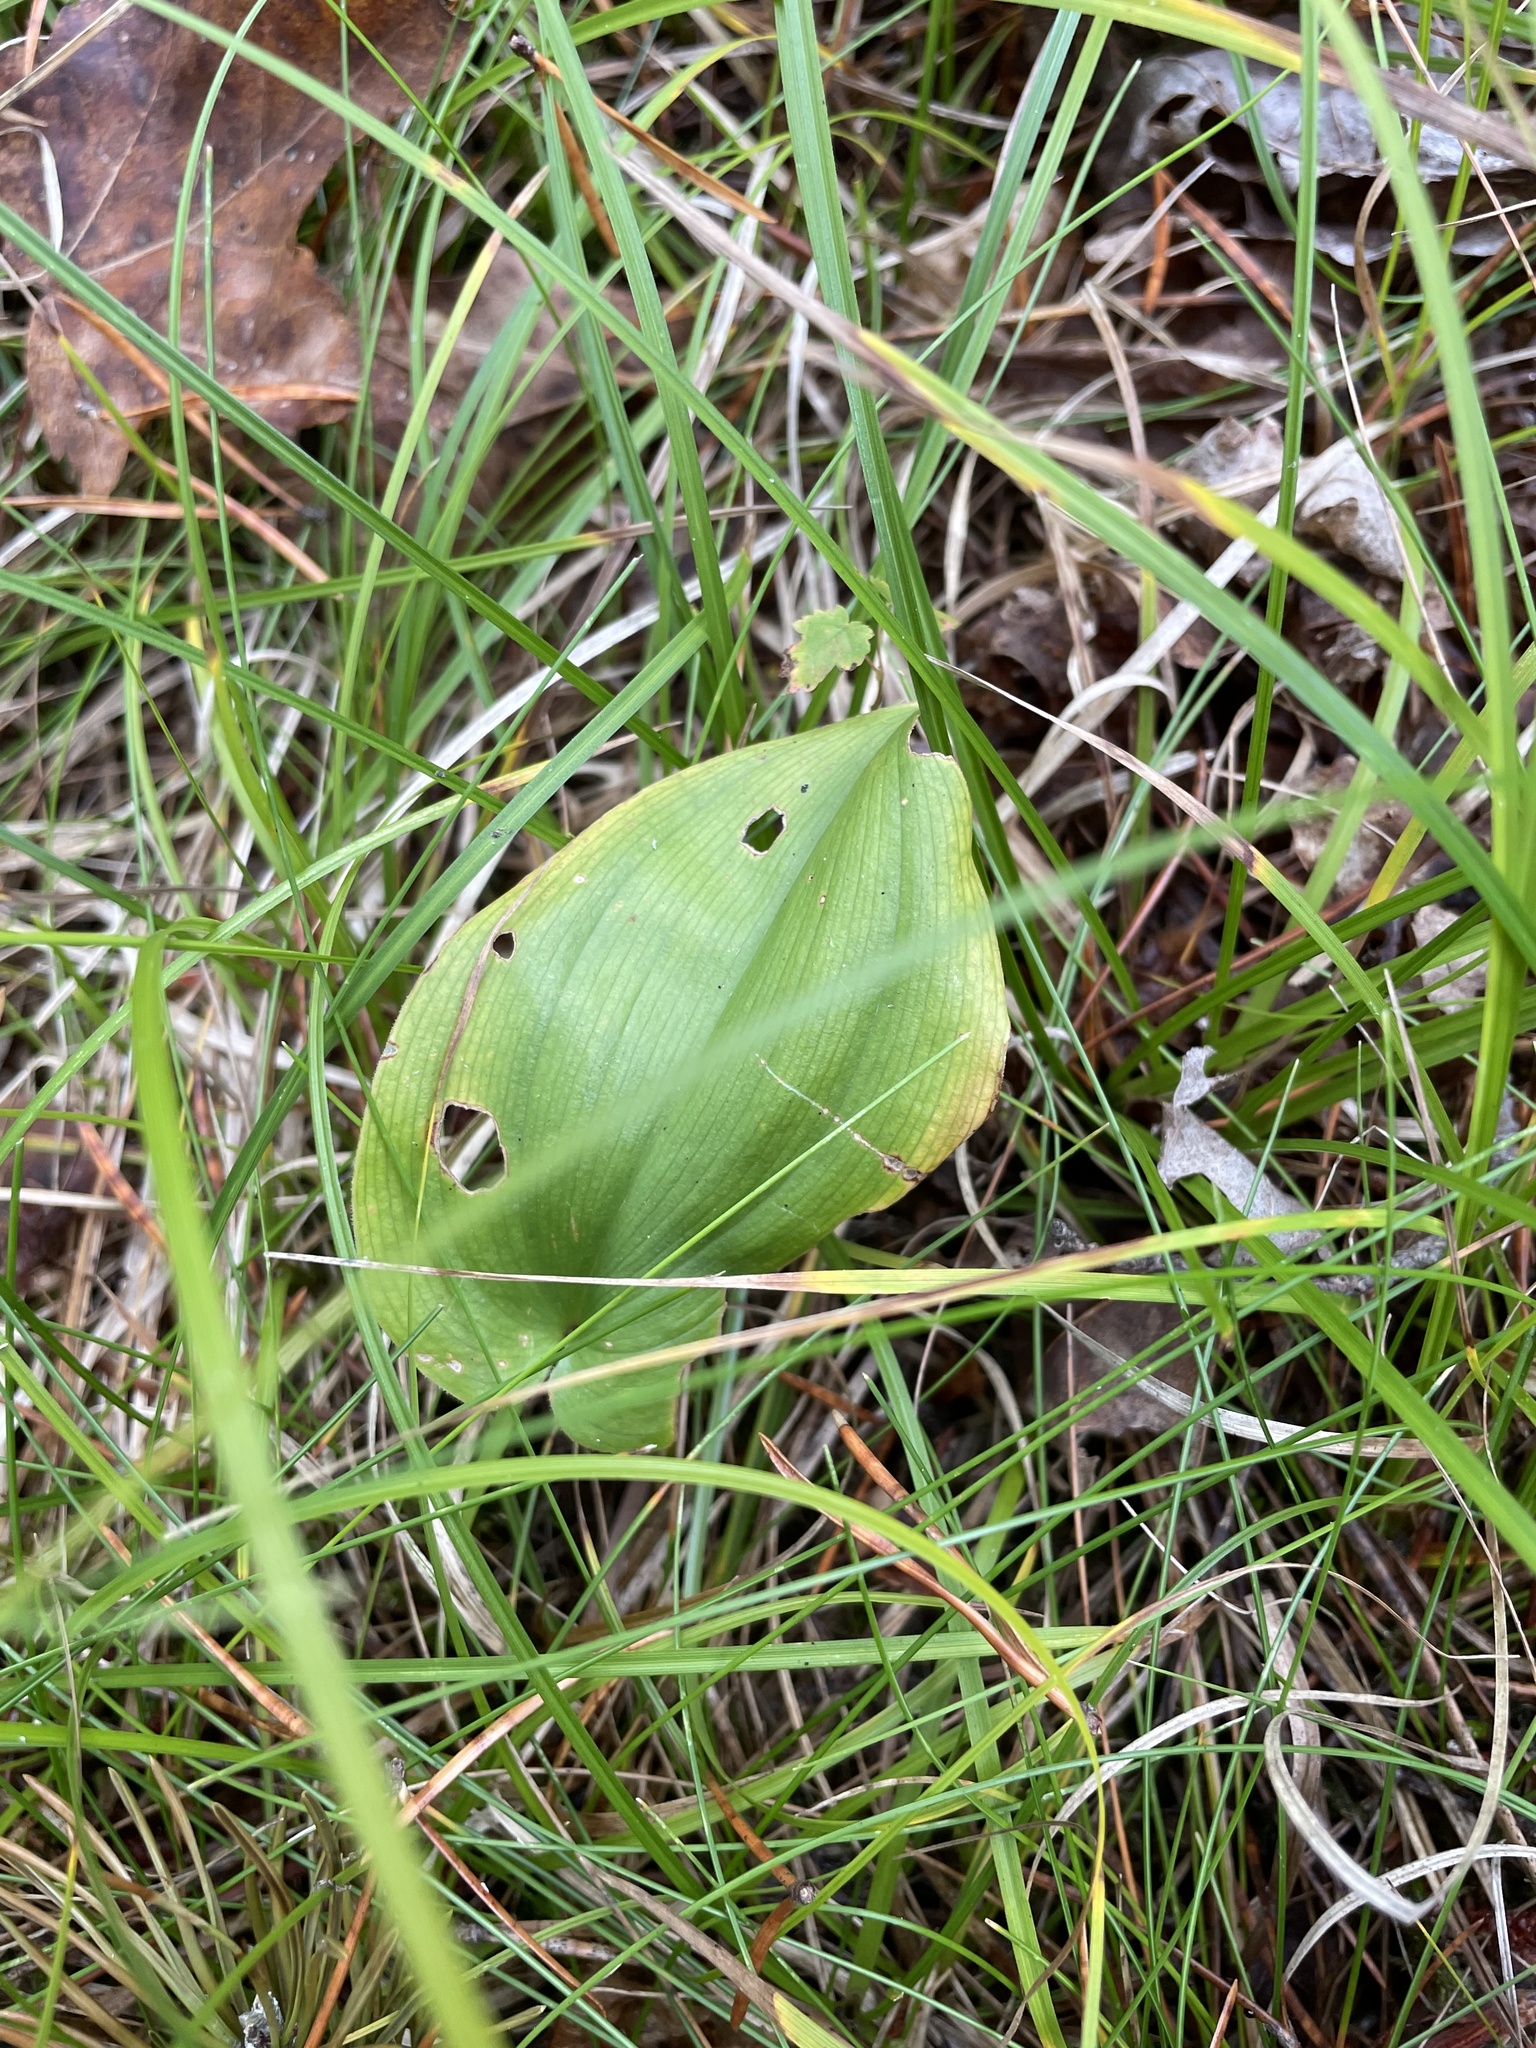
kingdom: Plantae
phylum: Tracheophyta
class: Liliopsida
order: Asparagales
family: Asparagaceae
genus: Maianthemum
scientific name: Maianthemum canadense
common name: False lily-of-the-valley
